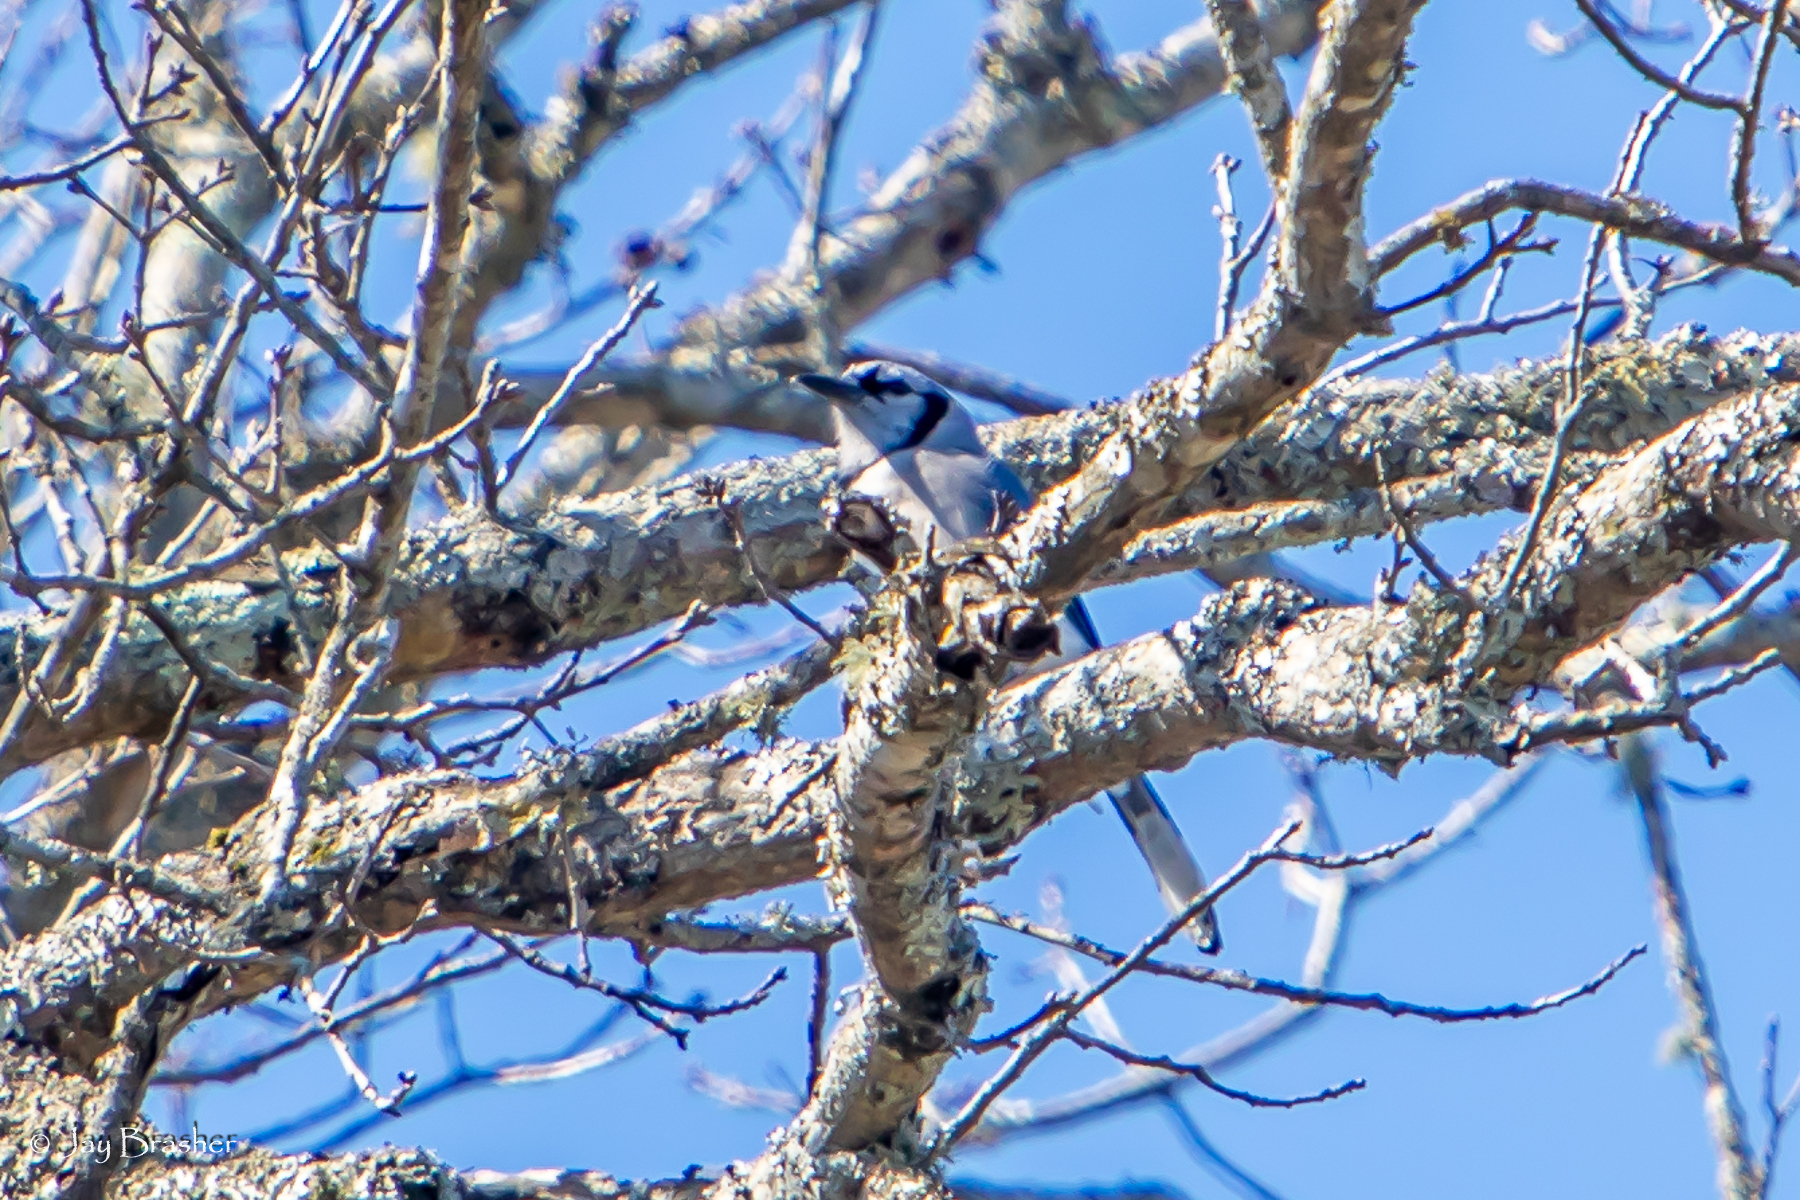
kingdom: Animalia
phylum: Chordata
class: Aves
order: Passeriformes
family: Corvidae
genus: Cyanocitta
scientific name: Cyanocitta cristata
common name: Blue jay
